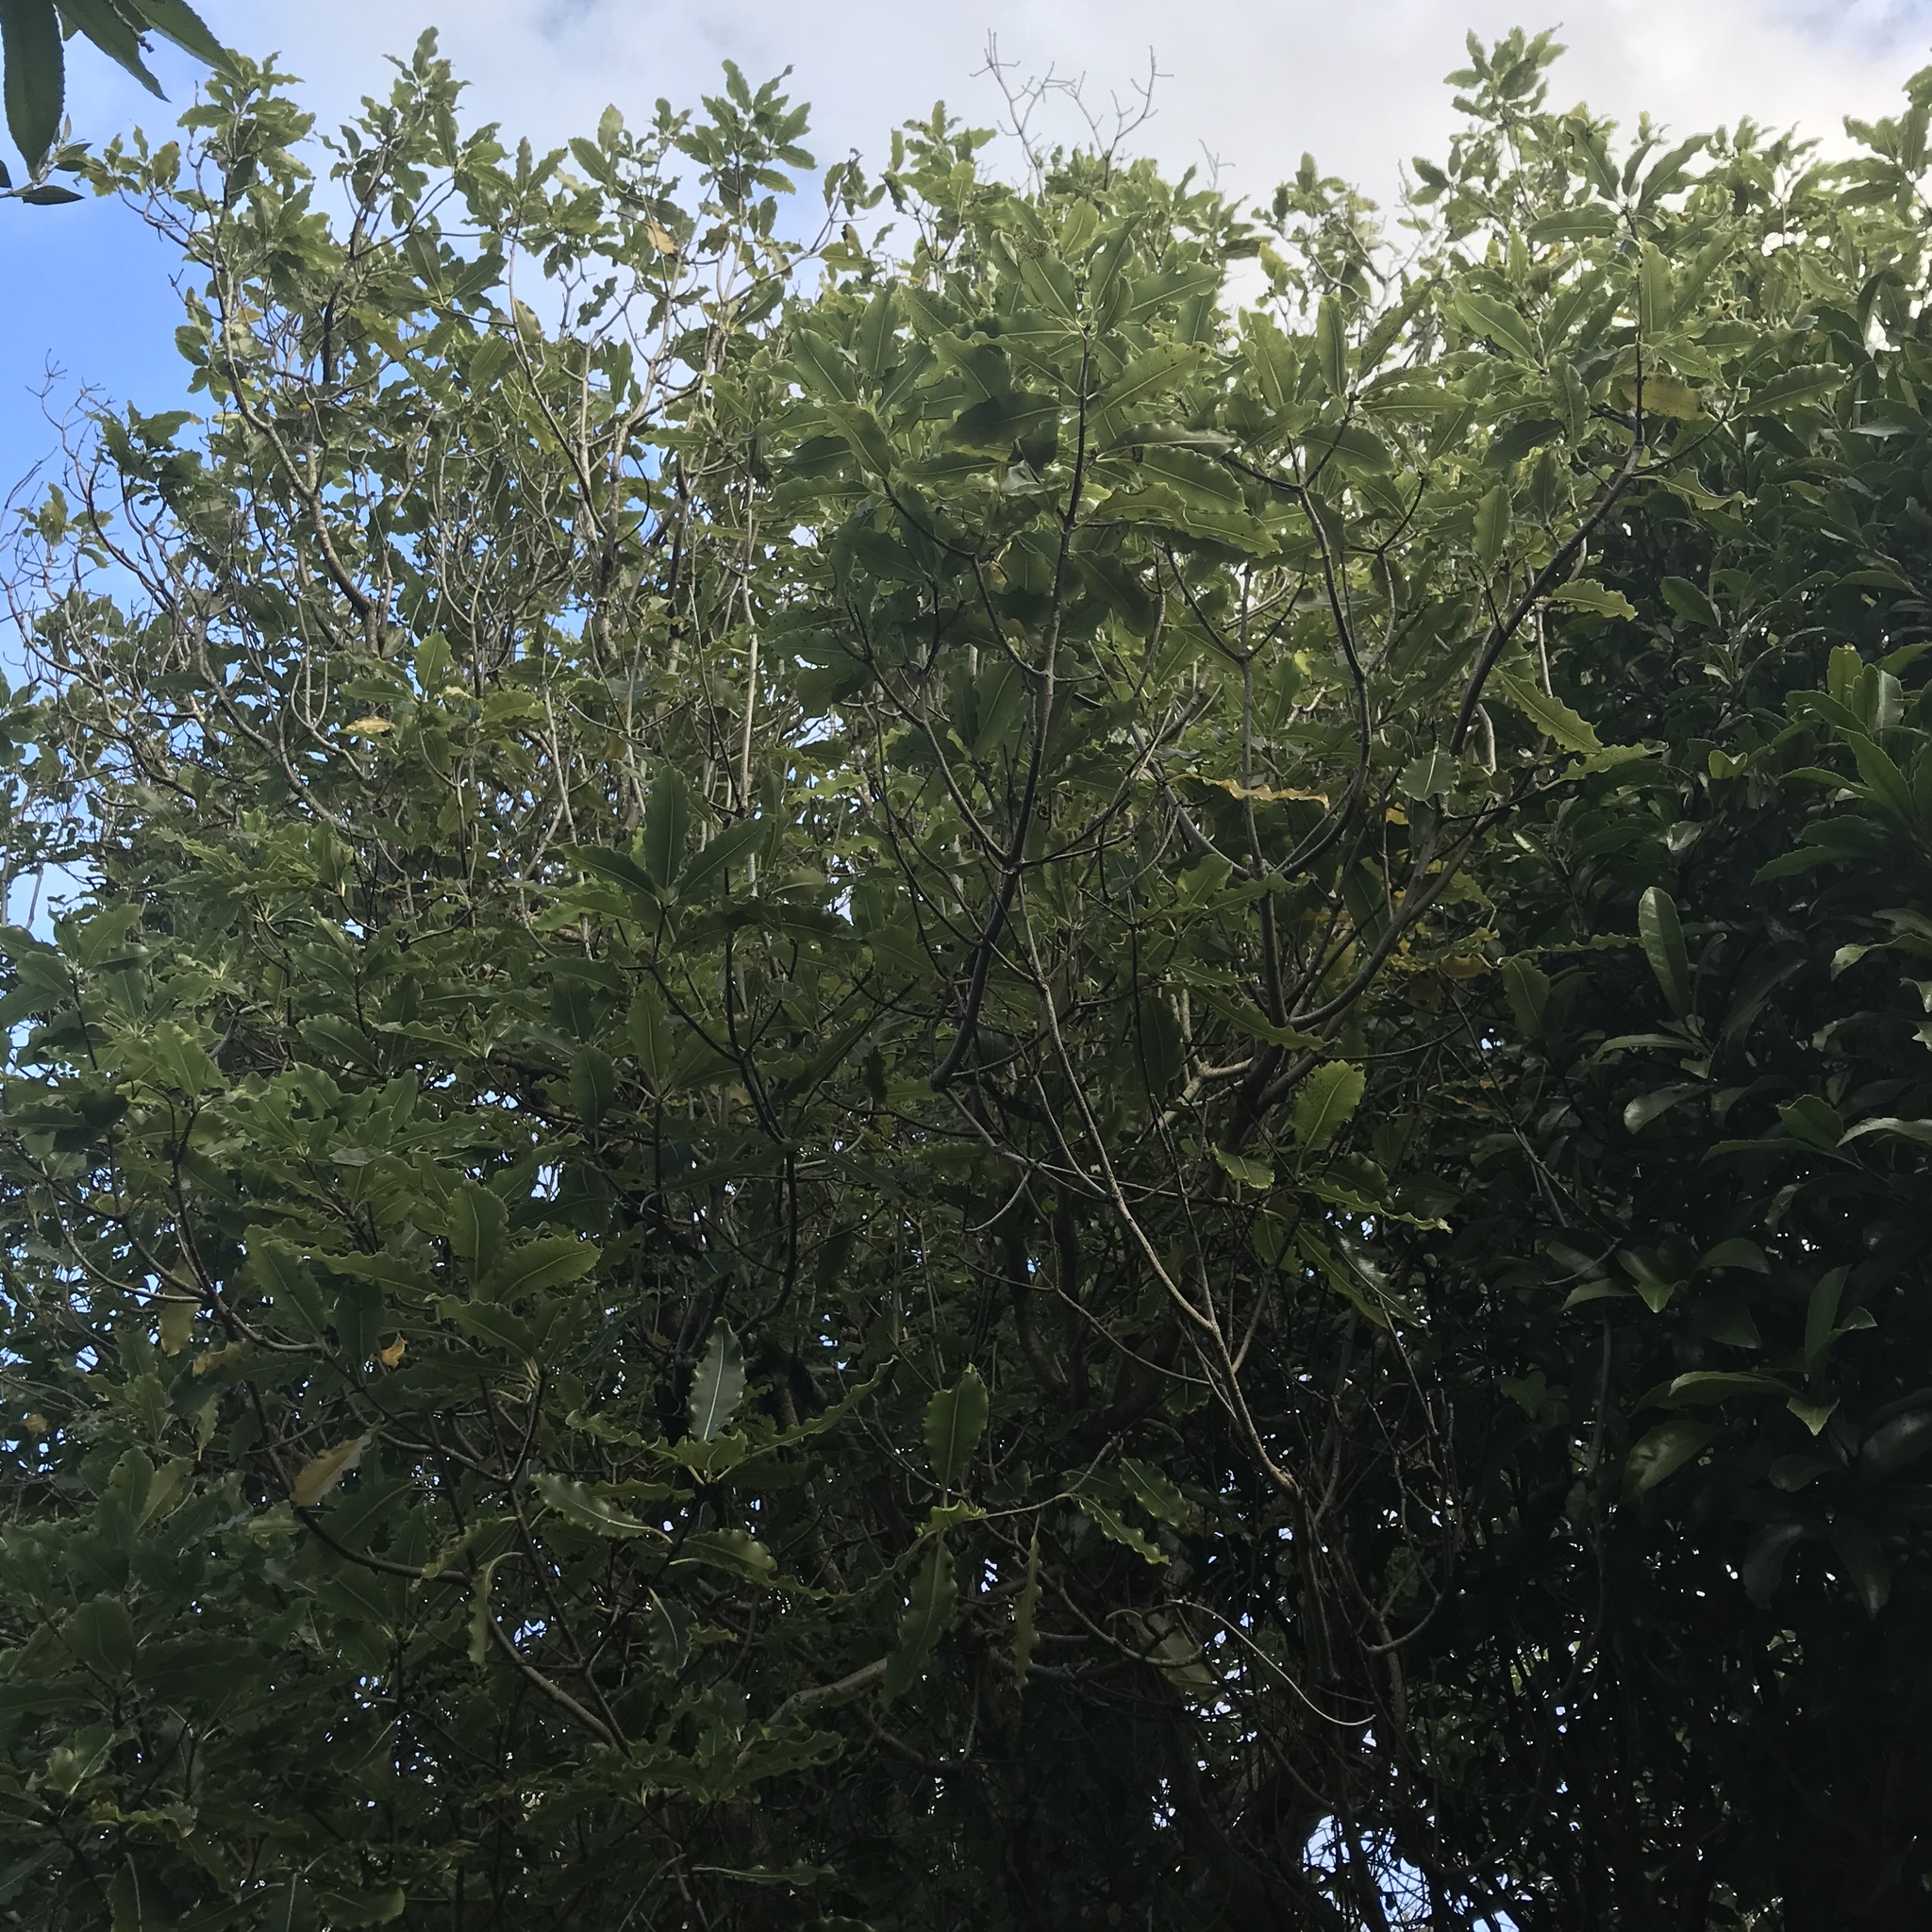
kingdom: Plantae
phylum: Tracheophyta
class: Magnoliopsida
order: Apiales
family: Pittosporaceae
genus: Pittosporum
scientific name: Pittosporum eugenioides
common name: Lemonwood
